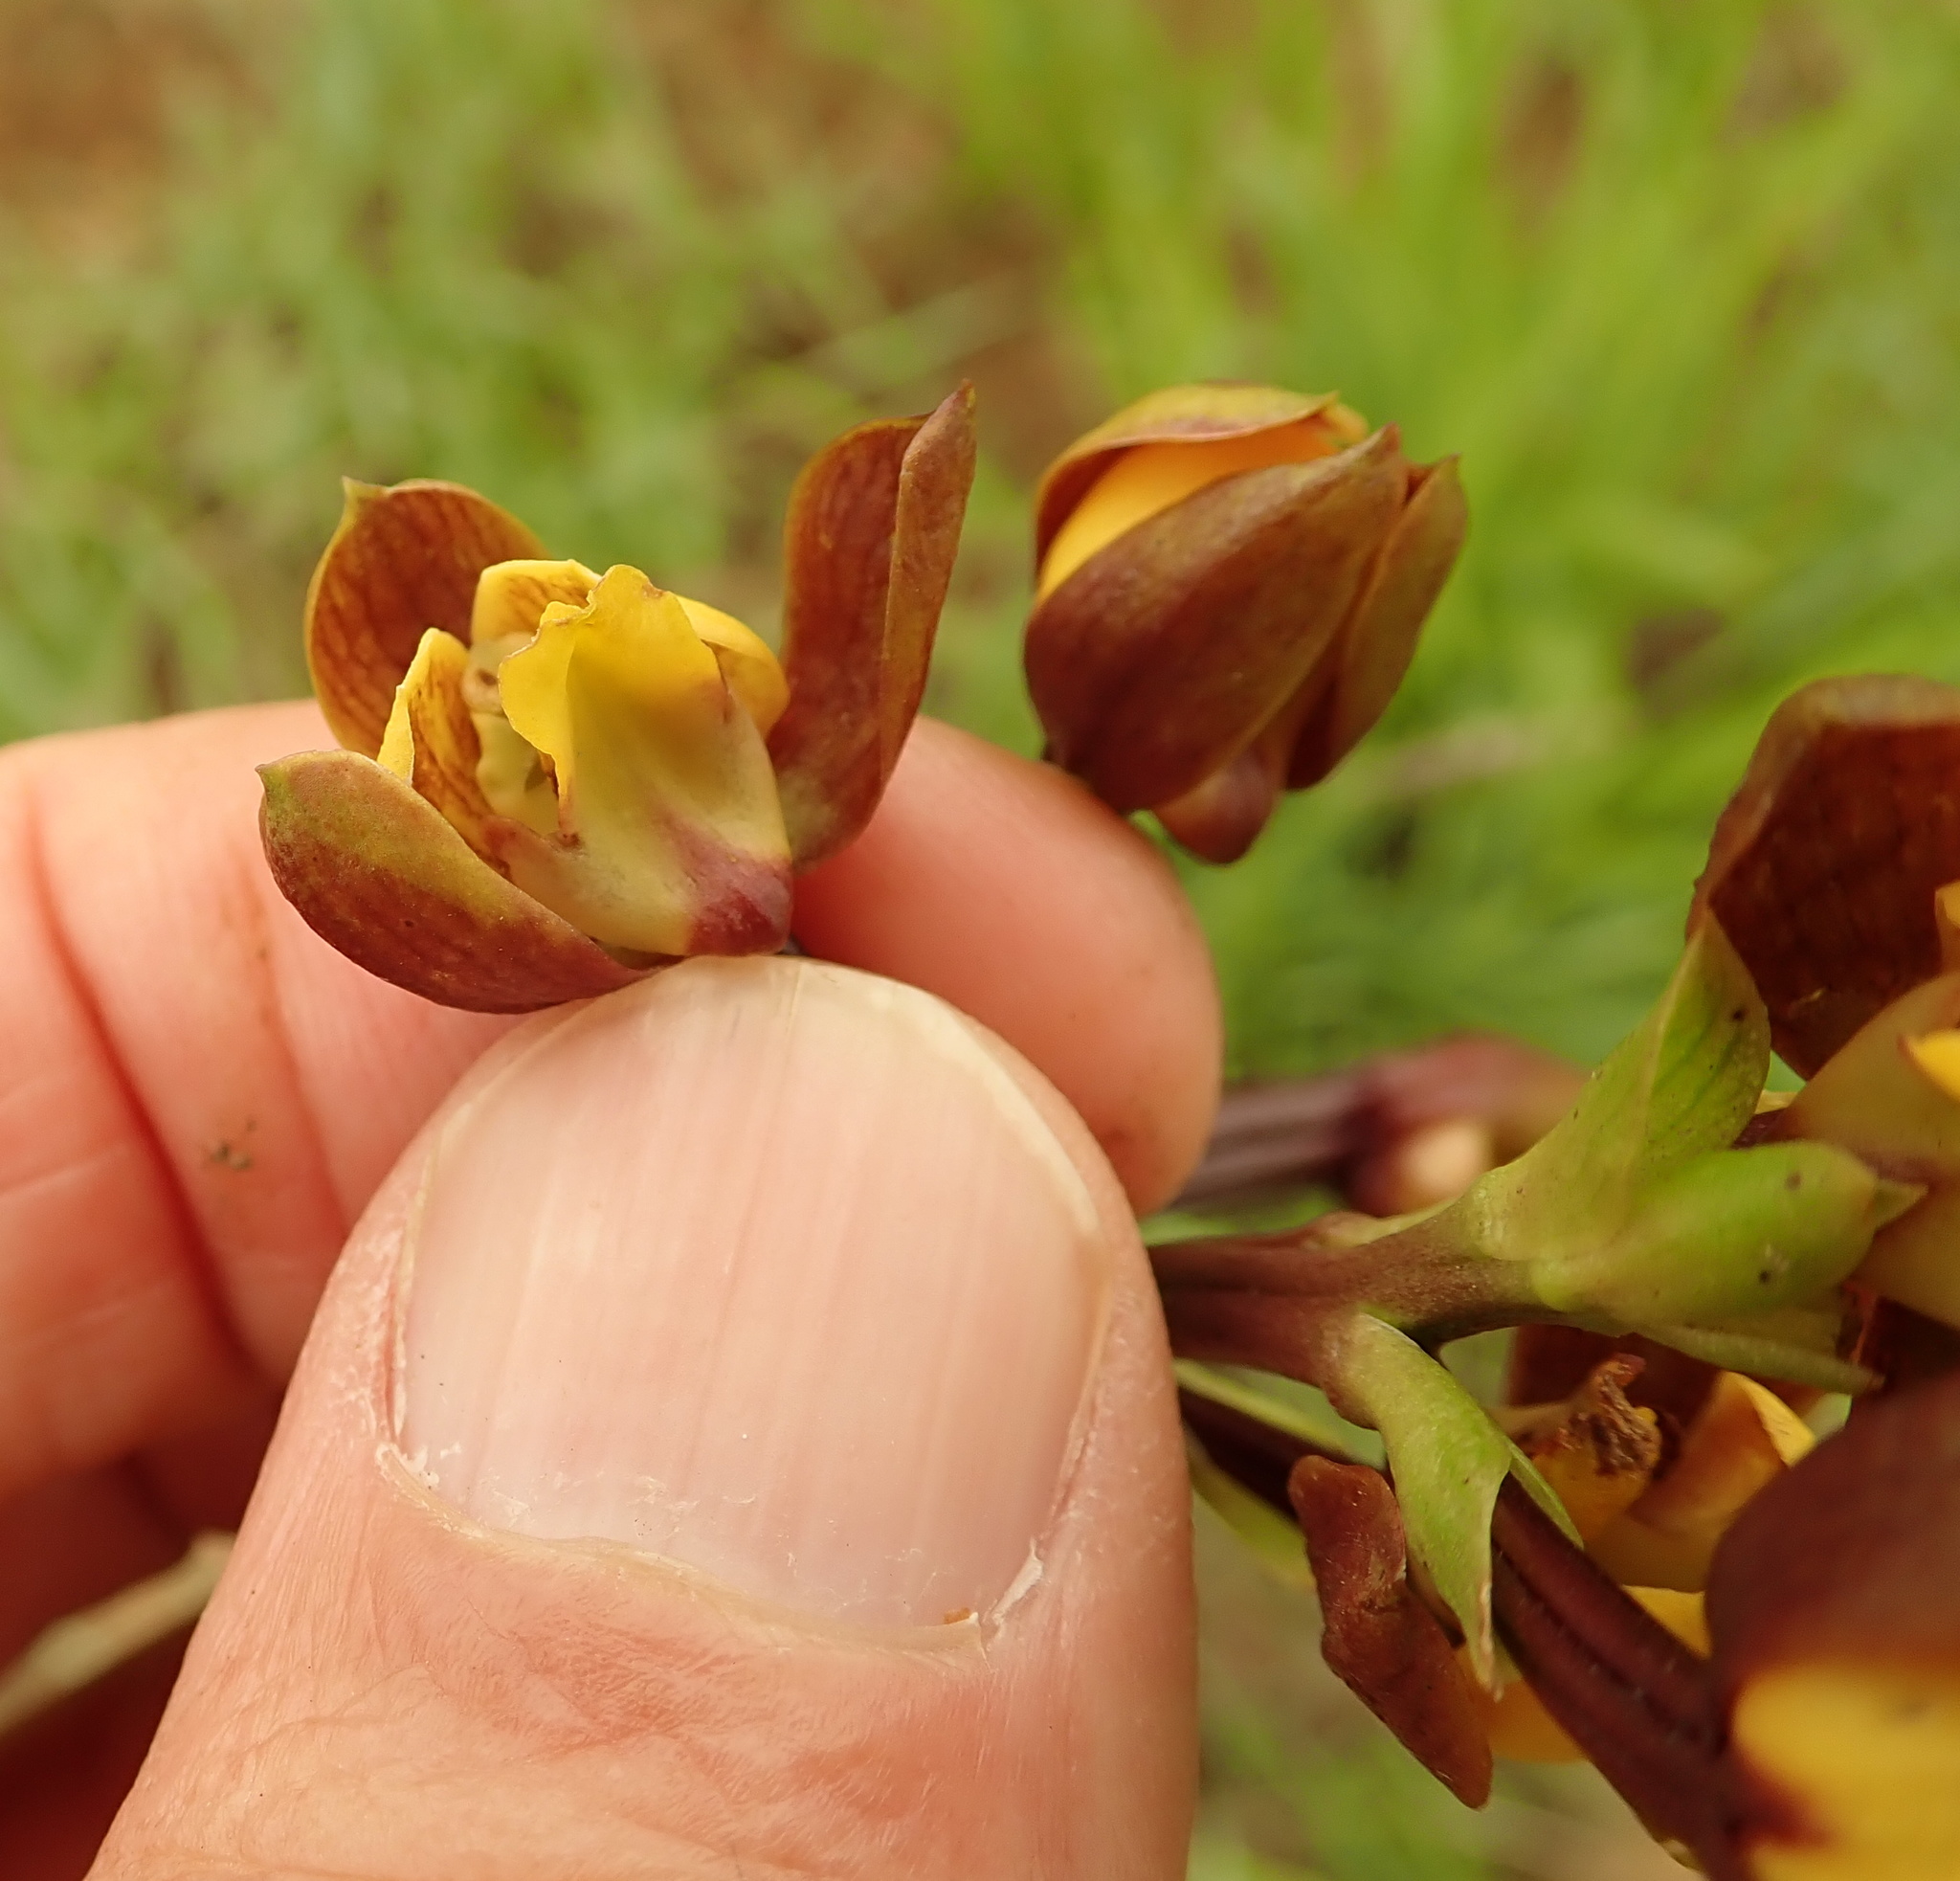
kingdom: Plantae
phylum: Tracheophyta
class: Liliopsida
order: Asparagales
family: Orchidaceae
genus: Eulophia
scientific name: Eulophia parviflora
